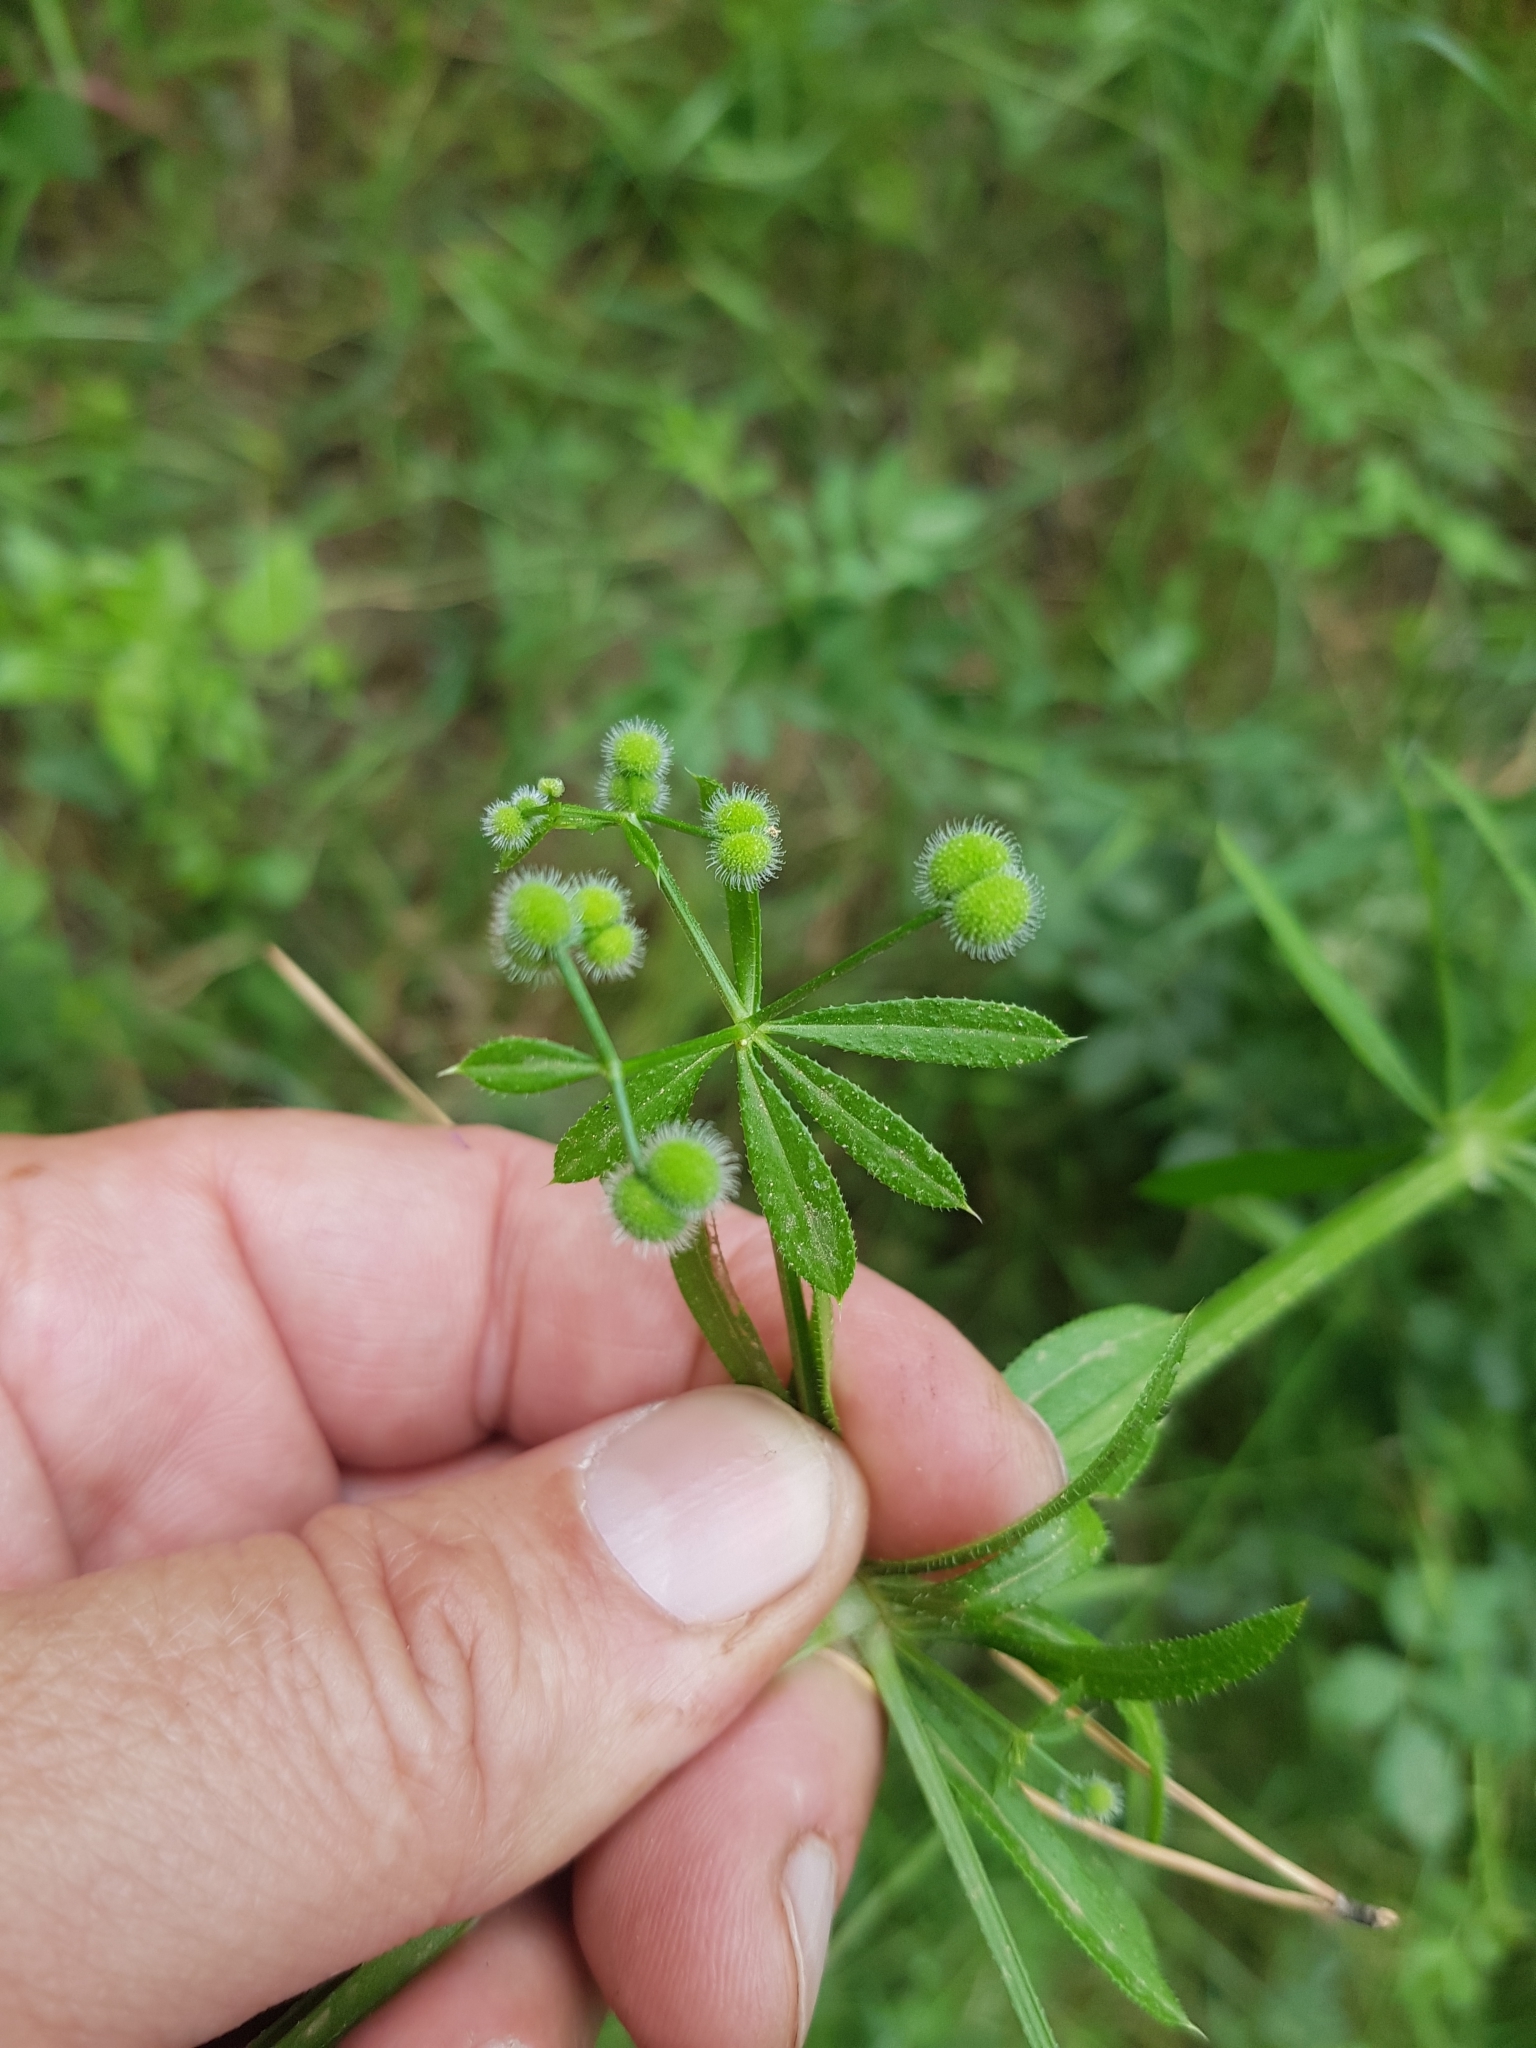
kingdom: Plantae
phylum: Tracheophyta
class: Magnoliopsida
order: Gentianales
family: Rubiaceae
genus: Galium
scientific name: Galium aparine
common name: Cleavers
